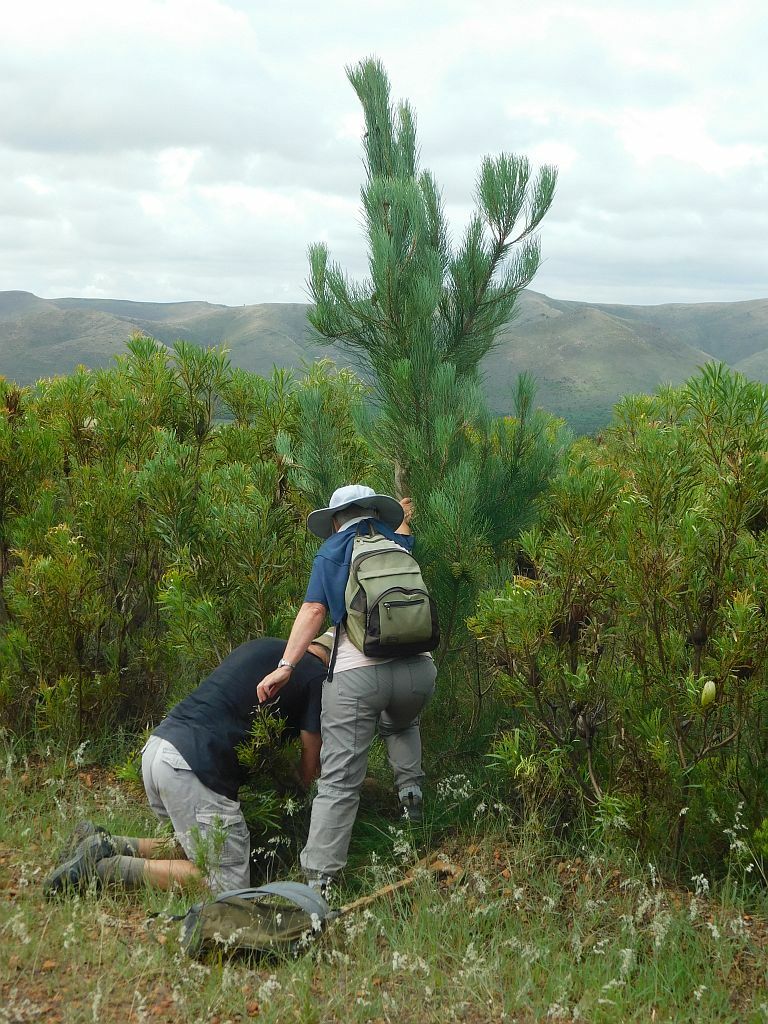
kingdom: Plantae
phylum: Tracheophyta
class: Pinopsida
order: Pinales
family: Pinaceae
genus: Pinus
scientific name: Pinus radiata
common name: Monterey pine
